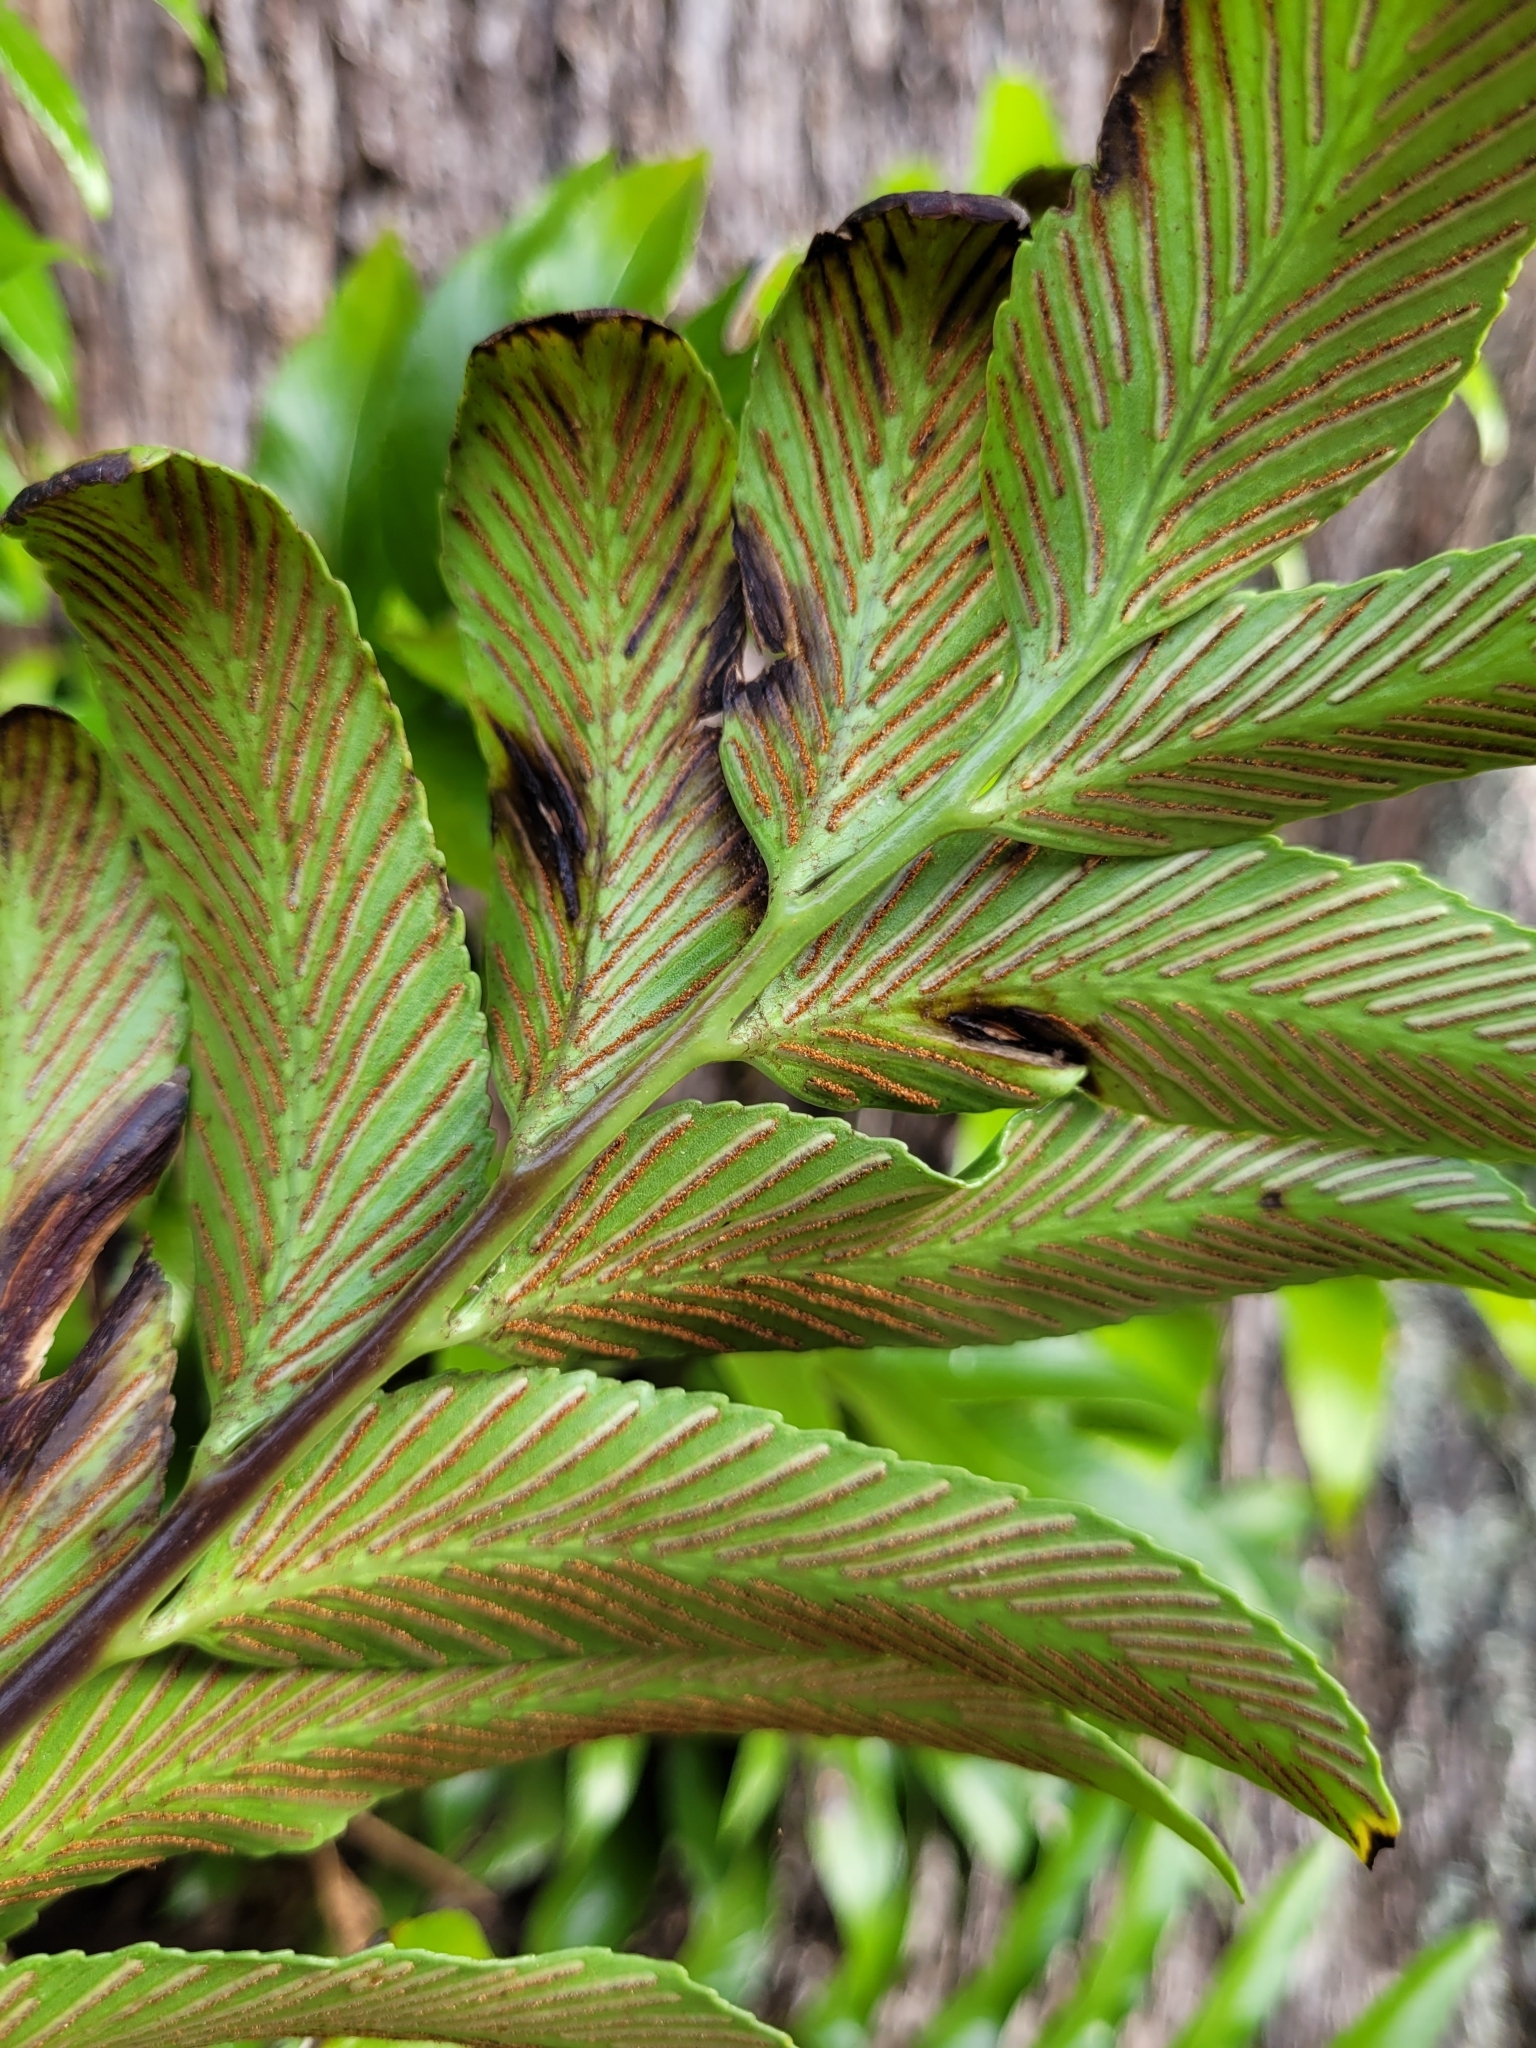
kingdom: Plantae
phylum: Tracheophyta
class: Polypodiopsida
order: Polypodiales
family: Aspleniaceae
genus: Asplenium
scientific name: Asplenium oblongifolium
